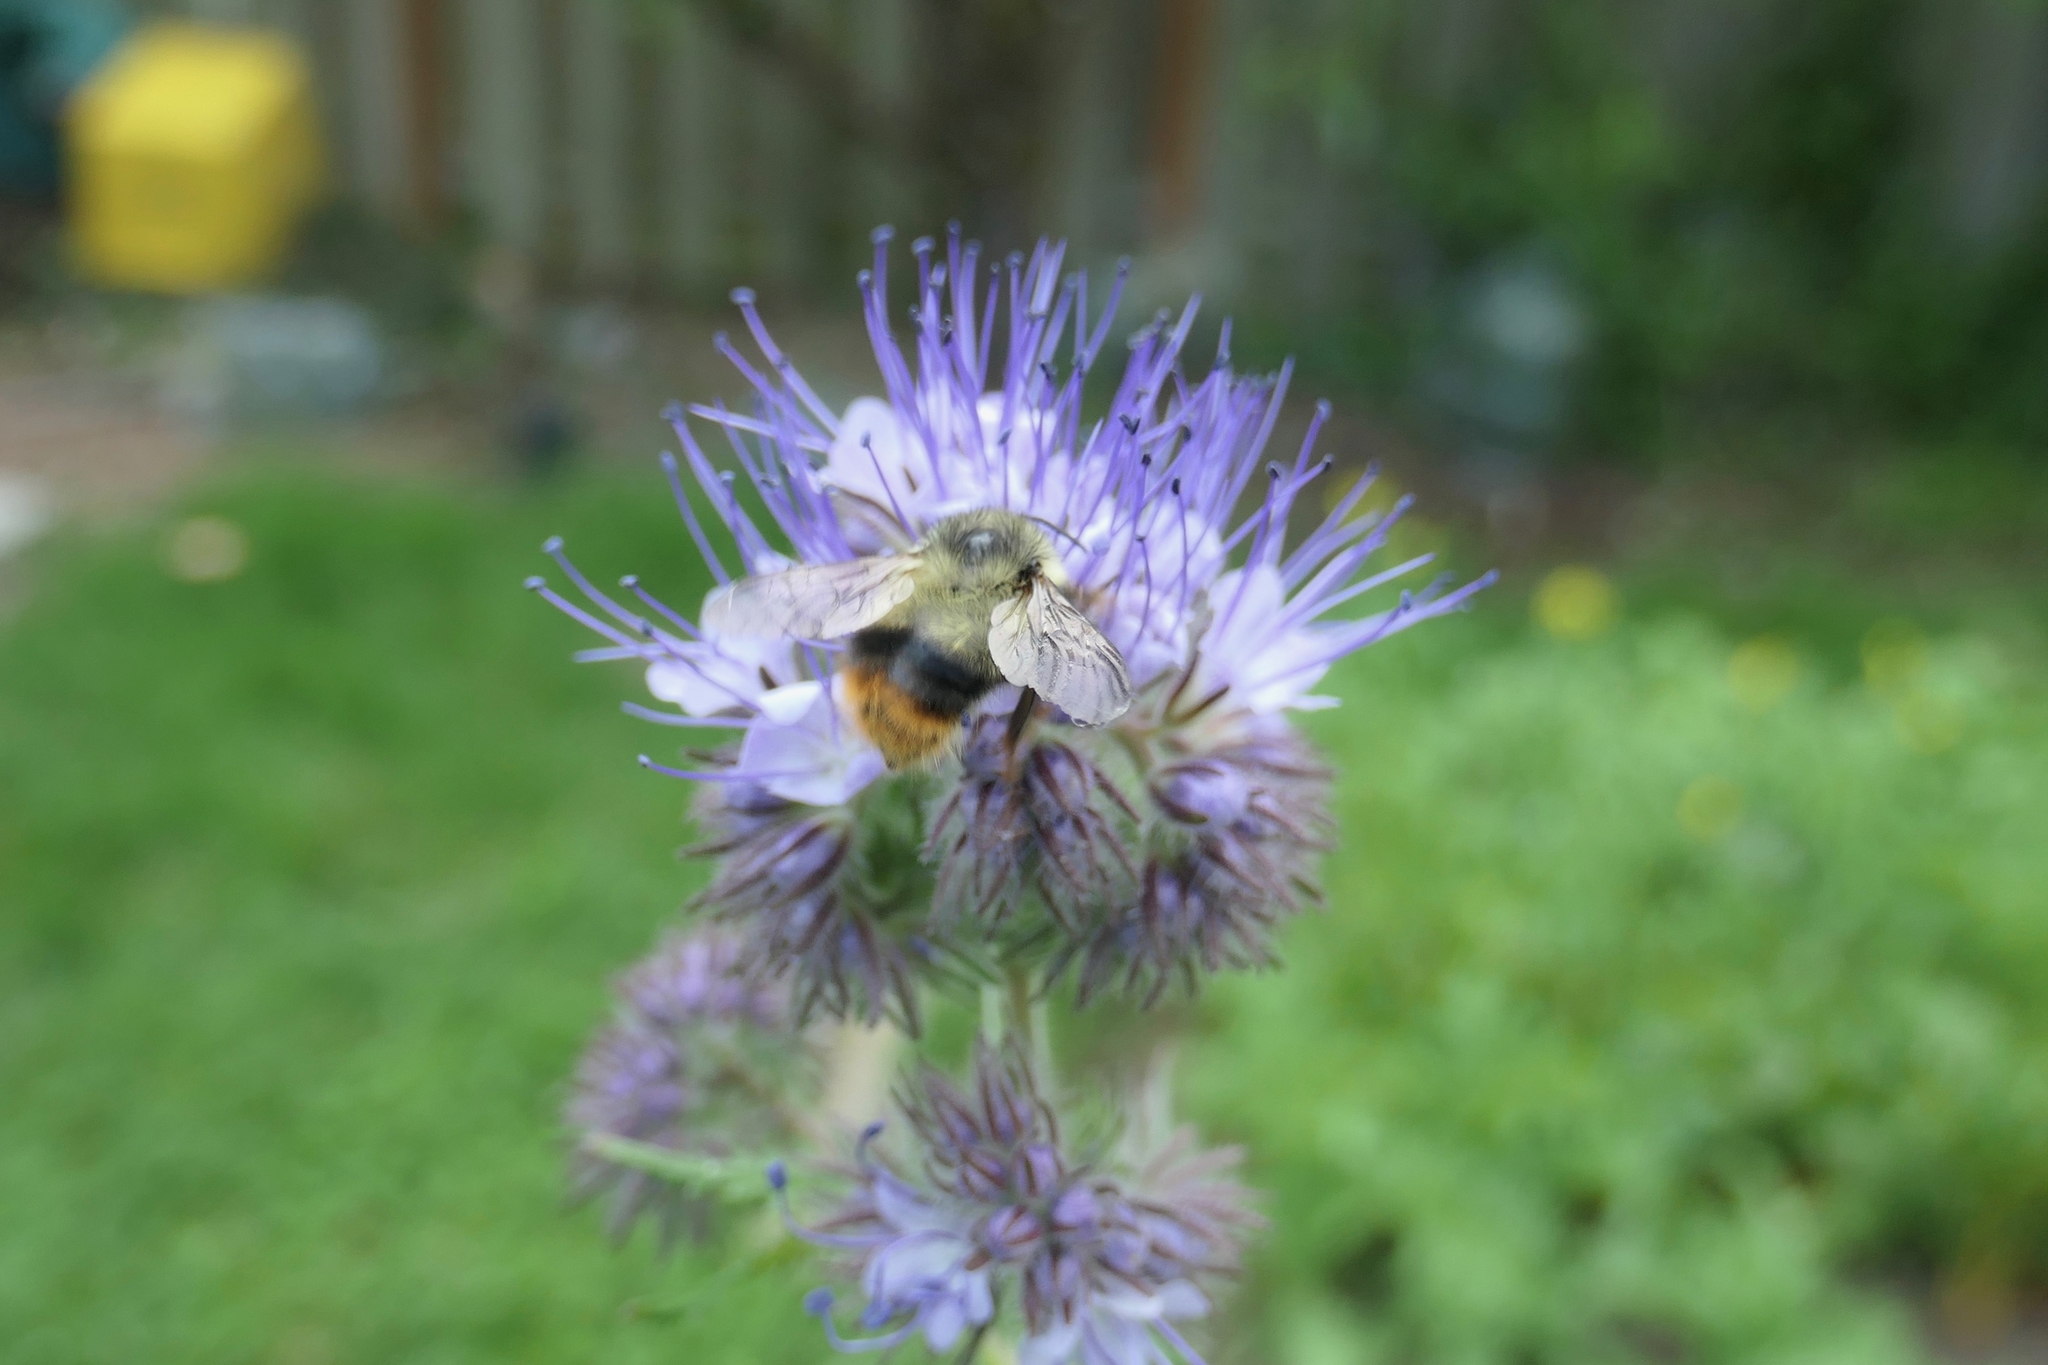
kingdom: Animalia
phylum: Arthropoda
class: Insecta
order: Hymenoptera
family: Apidae
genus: Bombus
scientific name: Bombus mixtus
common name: Fuzzy-horned bumble bee
